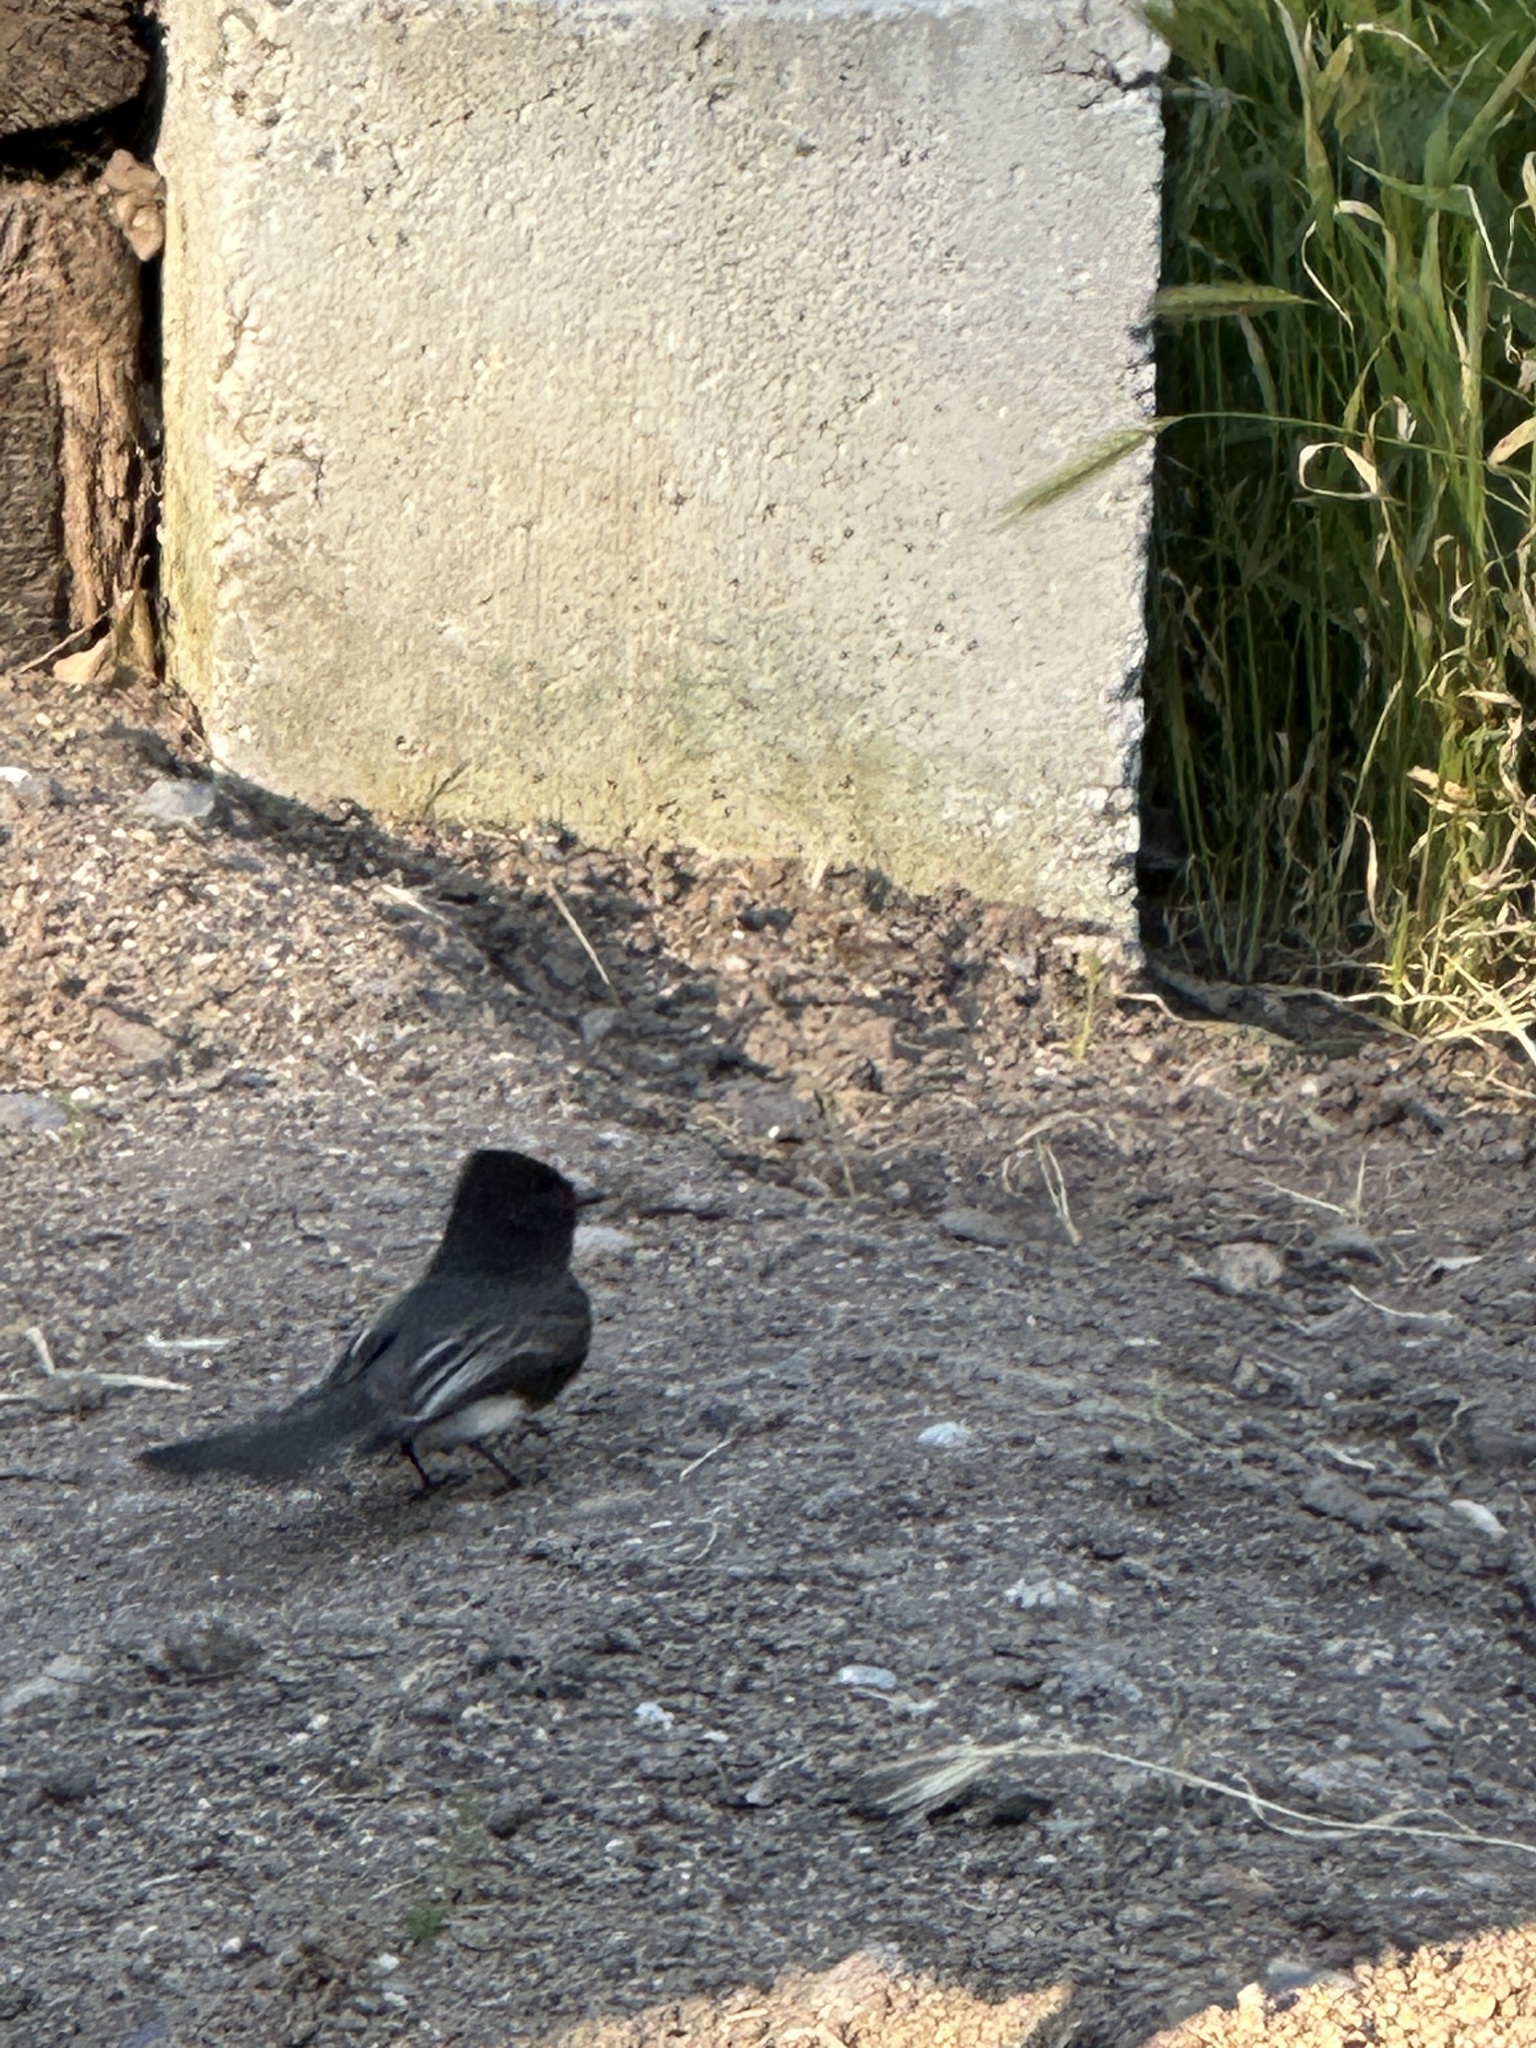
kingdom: Animalia
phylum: Chordata
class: Aves
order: Passeriformes
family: Tyrannidae
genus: Sayornis
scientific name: Sayornis nigricans
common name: Black phoebe
